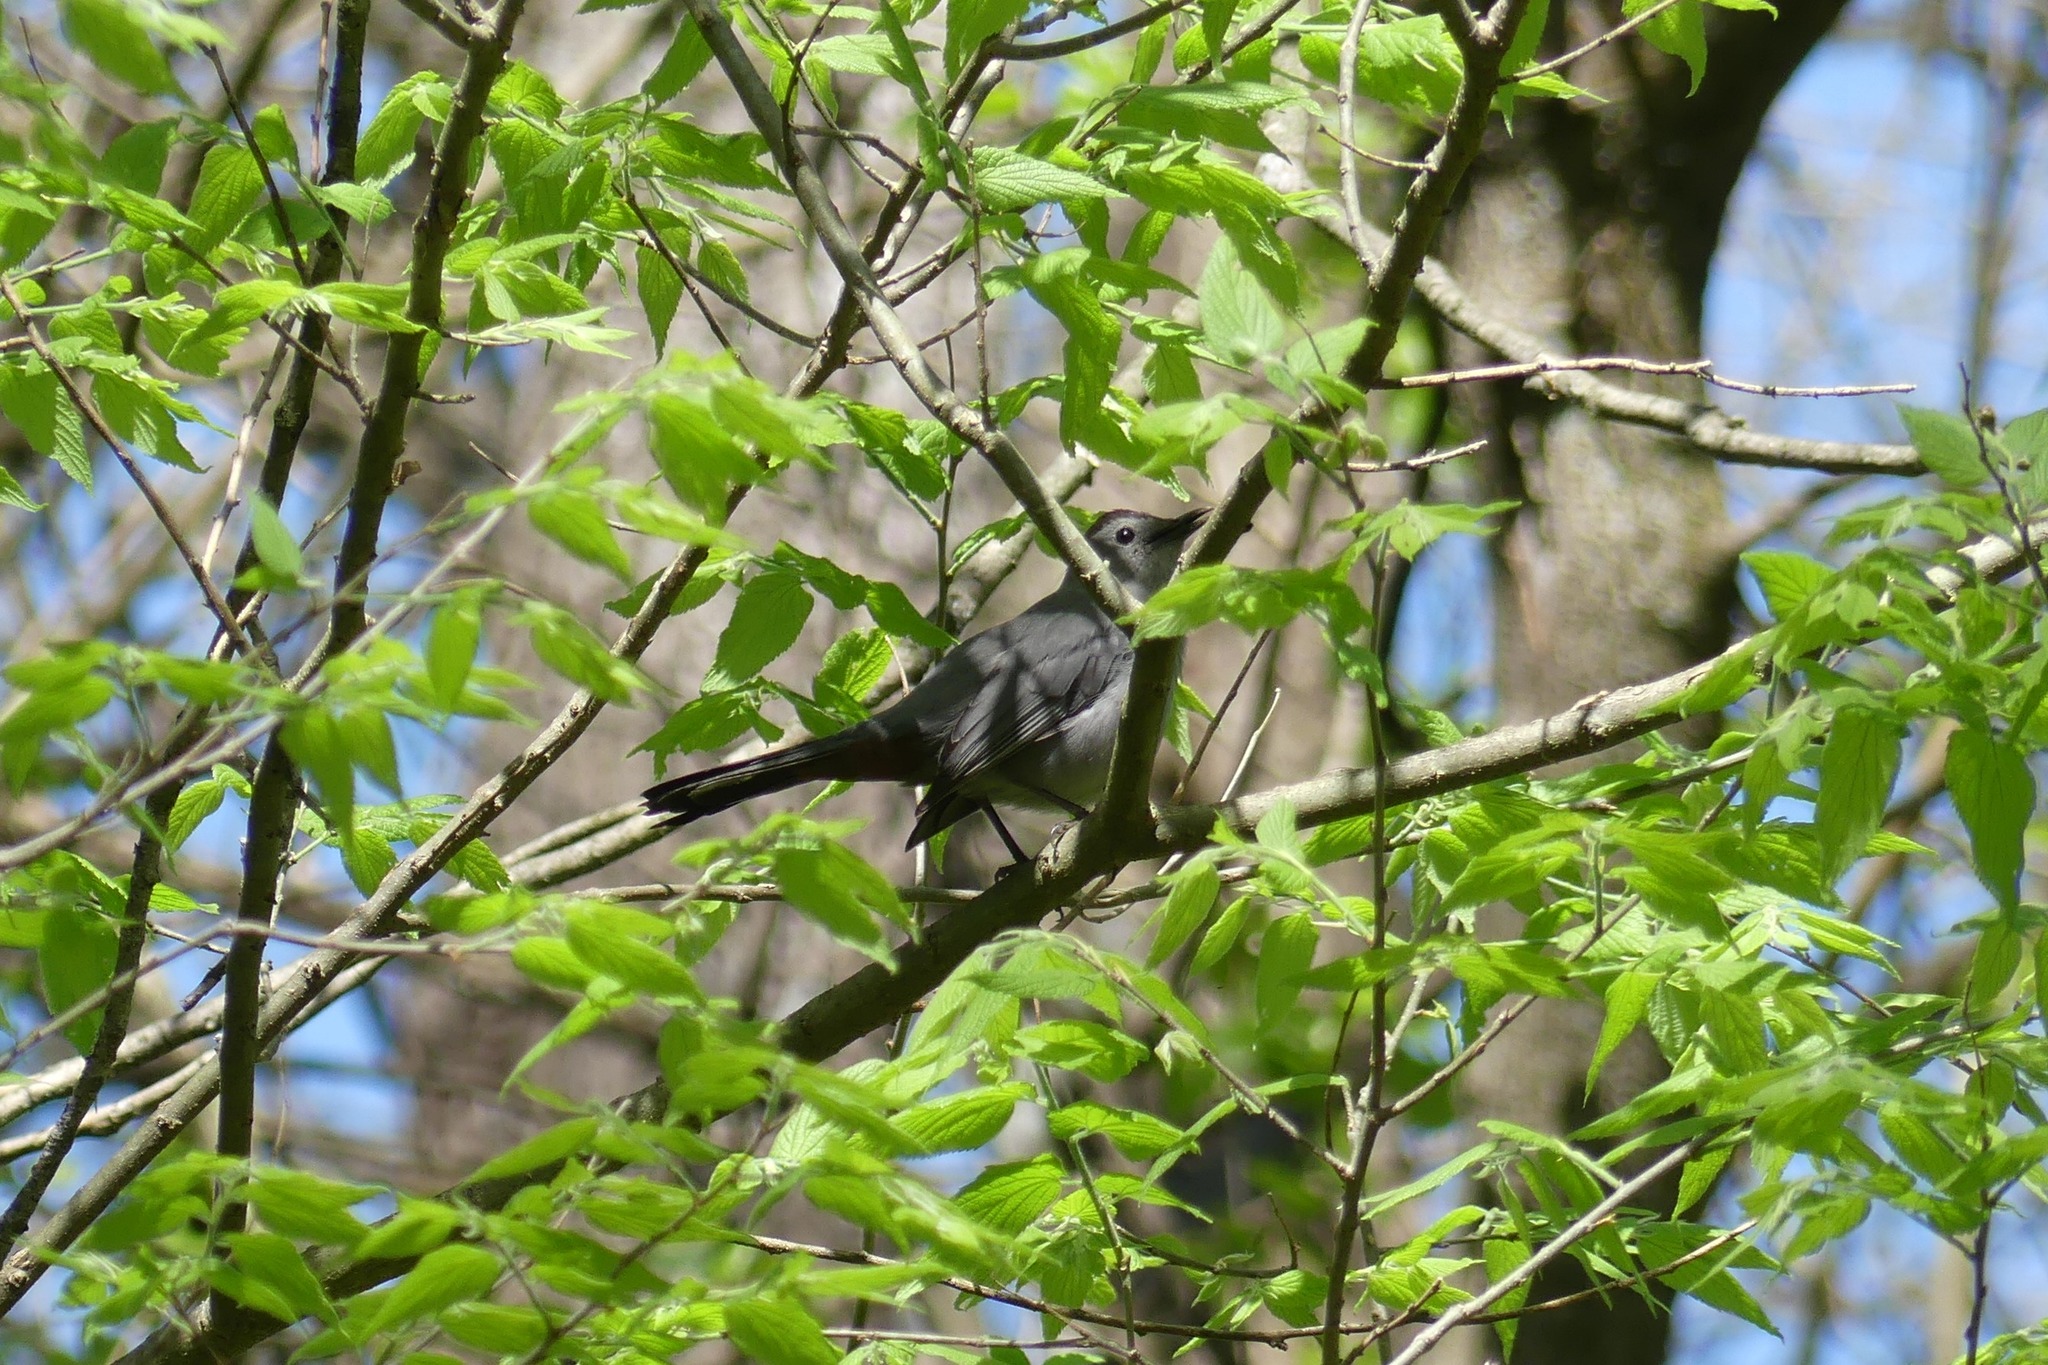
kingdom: Animalia
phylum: Chordata
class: Aves
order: Passeriformes
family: Mimidae
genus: Dumetella
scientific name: Dumetella carolinensis
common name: Gray catbird
